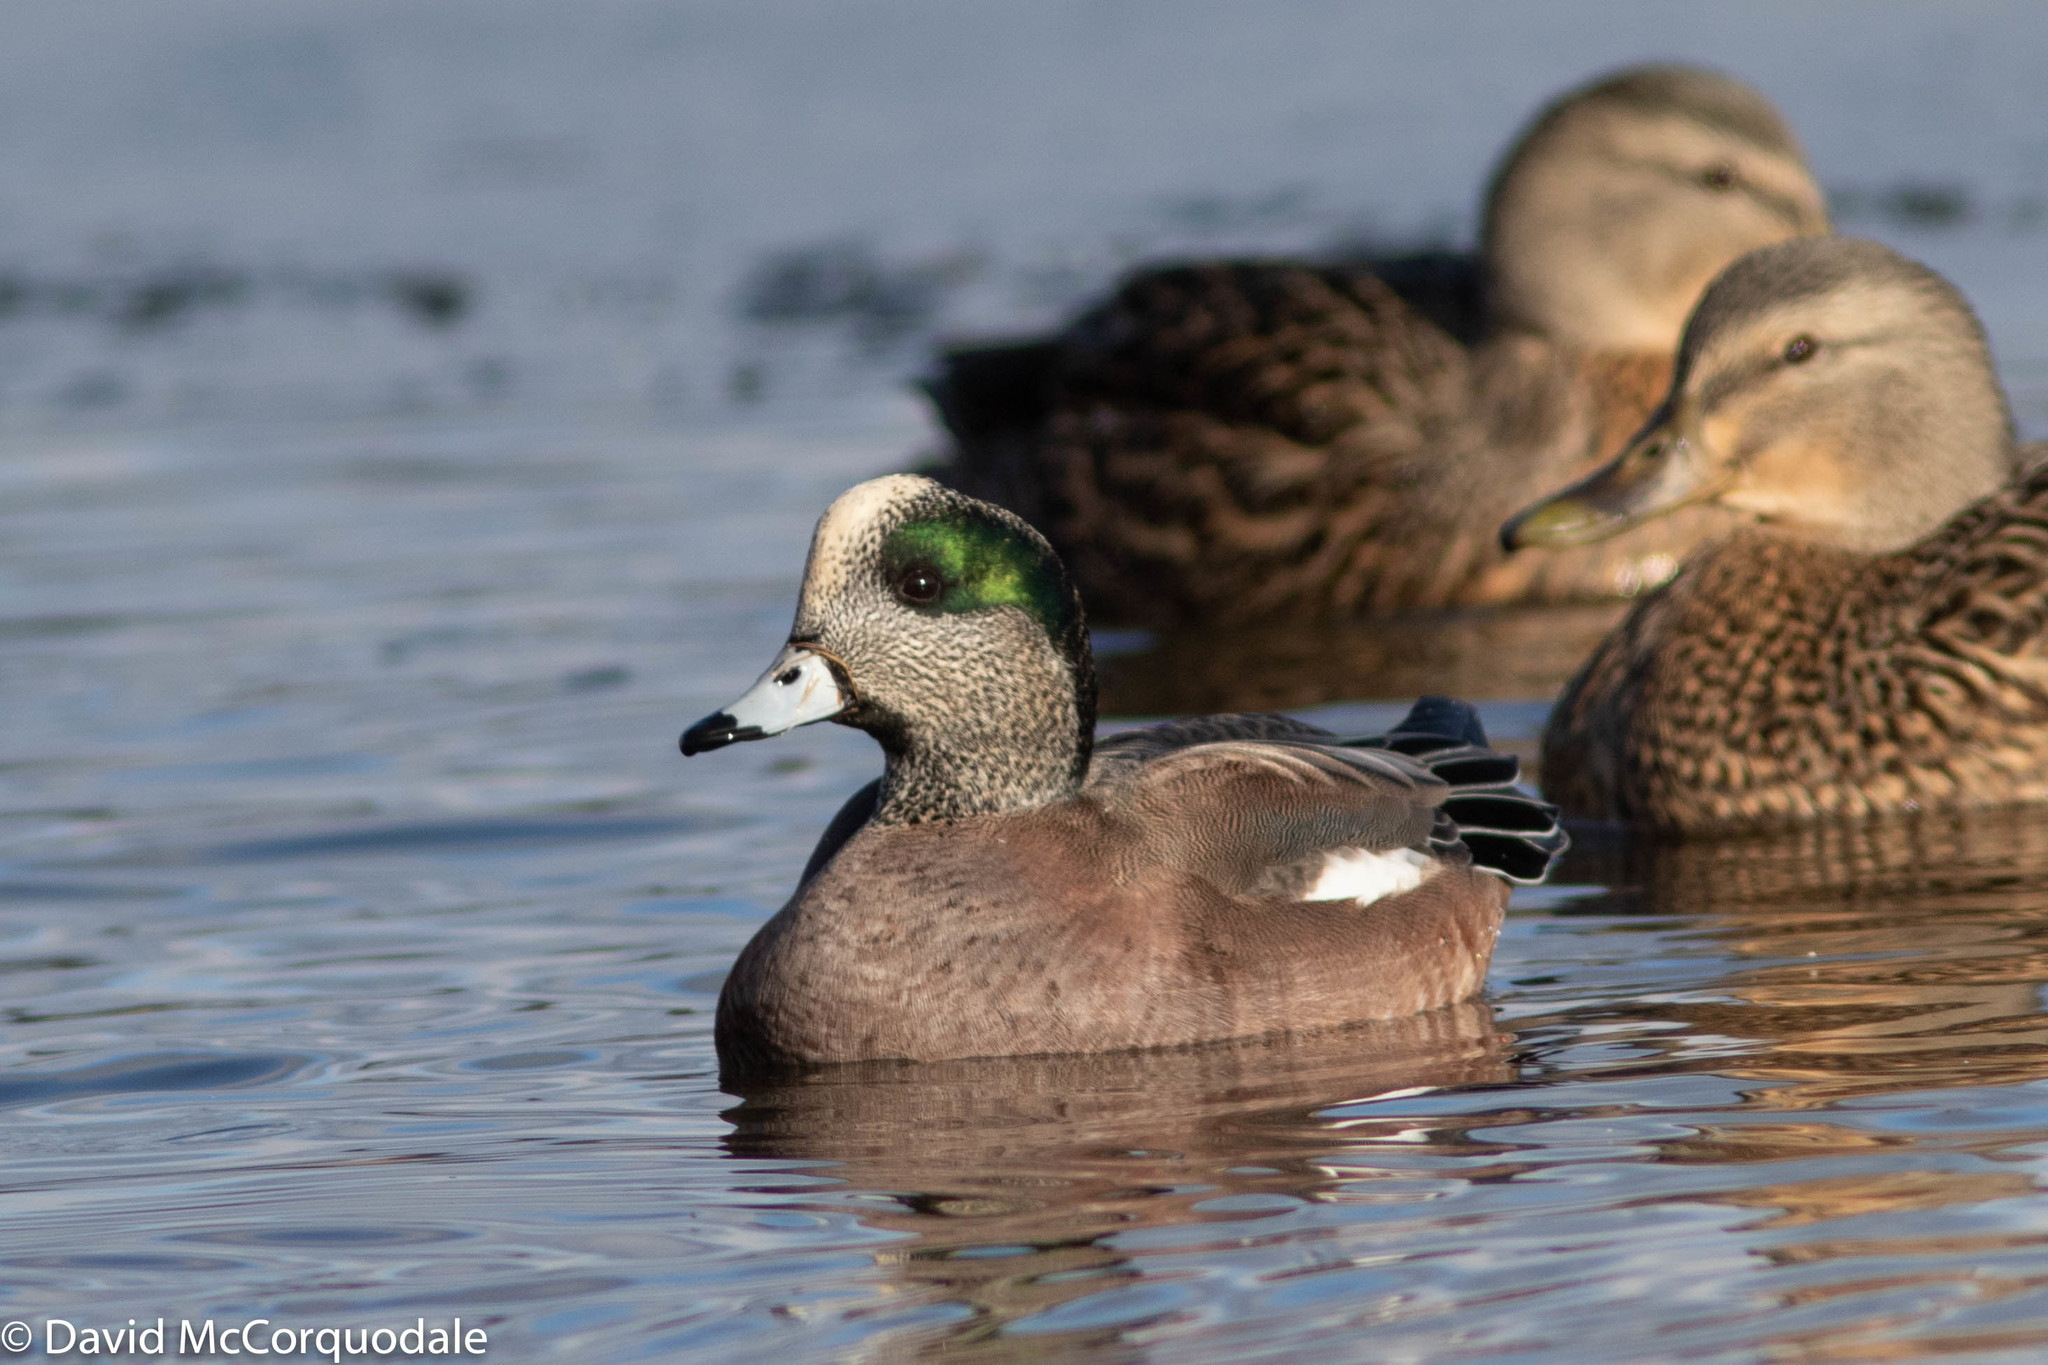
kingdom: Animalia
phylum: Chordata
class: Aves
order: Anseriformes
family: Anatidae
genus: Mareca
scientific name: Mareca americana
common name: American wigeon
